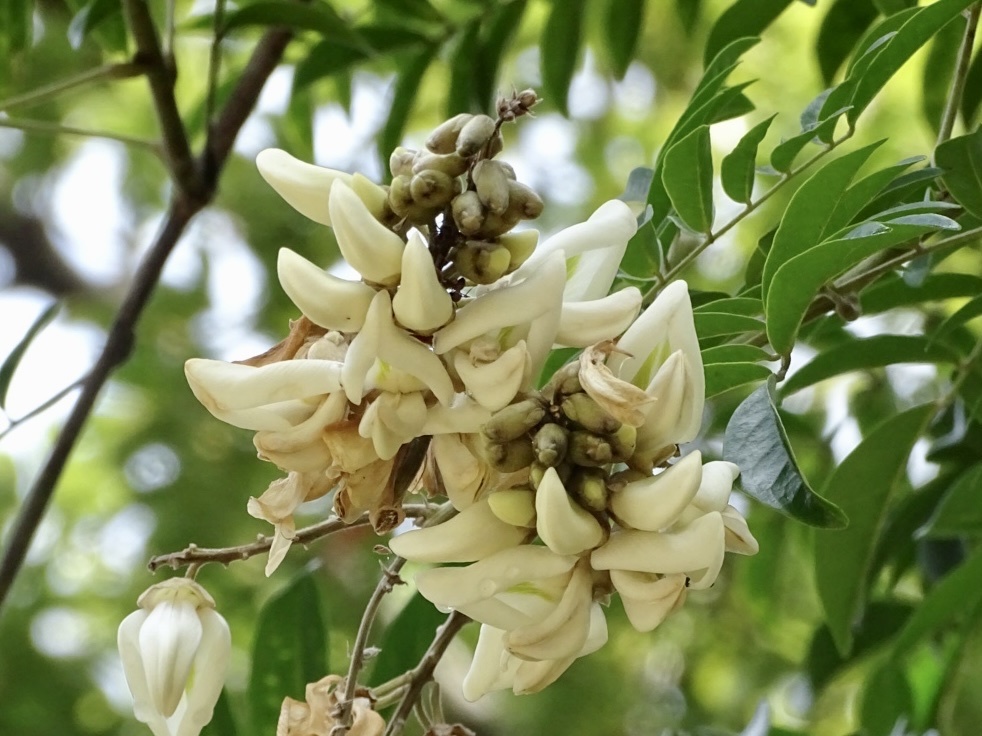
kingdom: Plantae
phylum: Tracheophyta
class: Magnoliopsida
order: Fabales
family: Fabaceae
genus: Nanhaia
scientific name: Nanhaia speciosa
